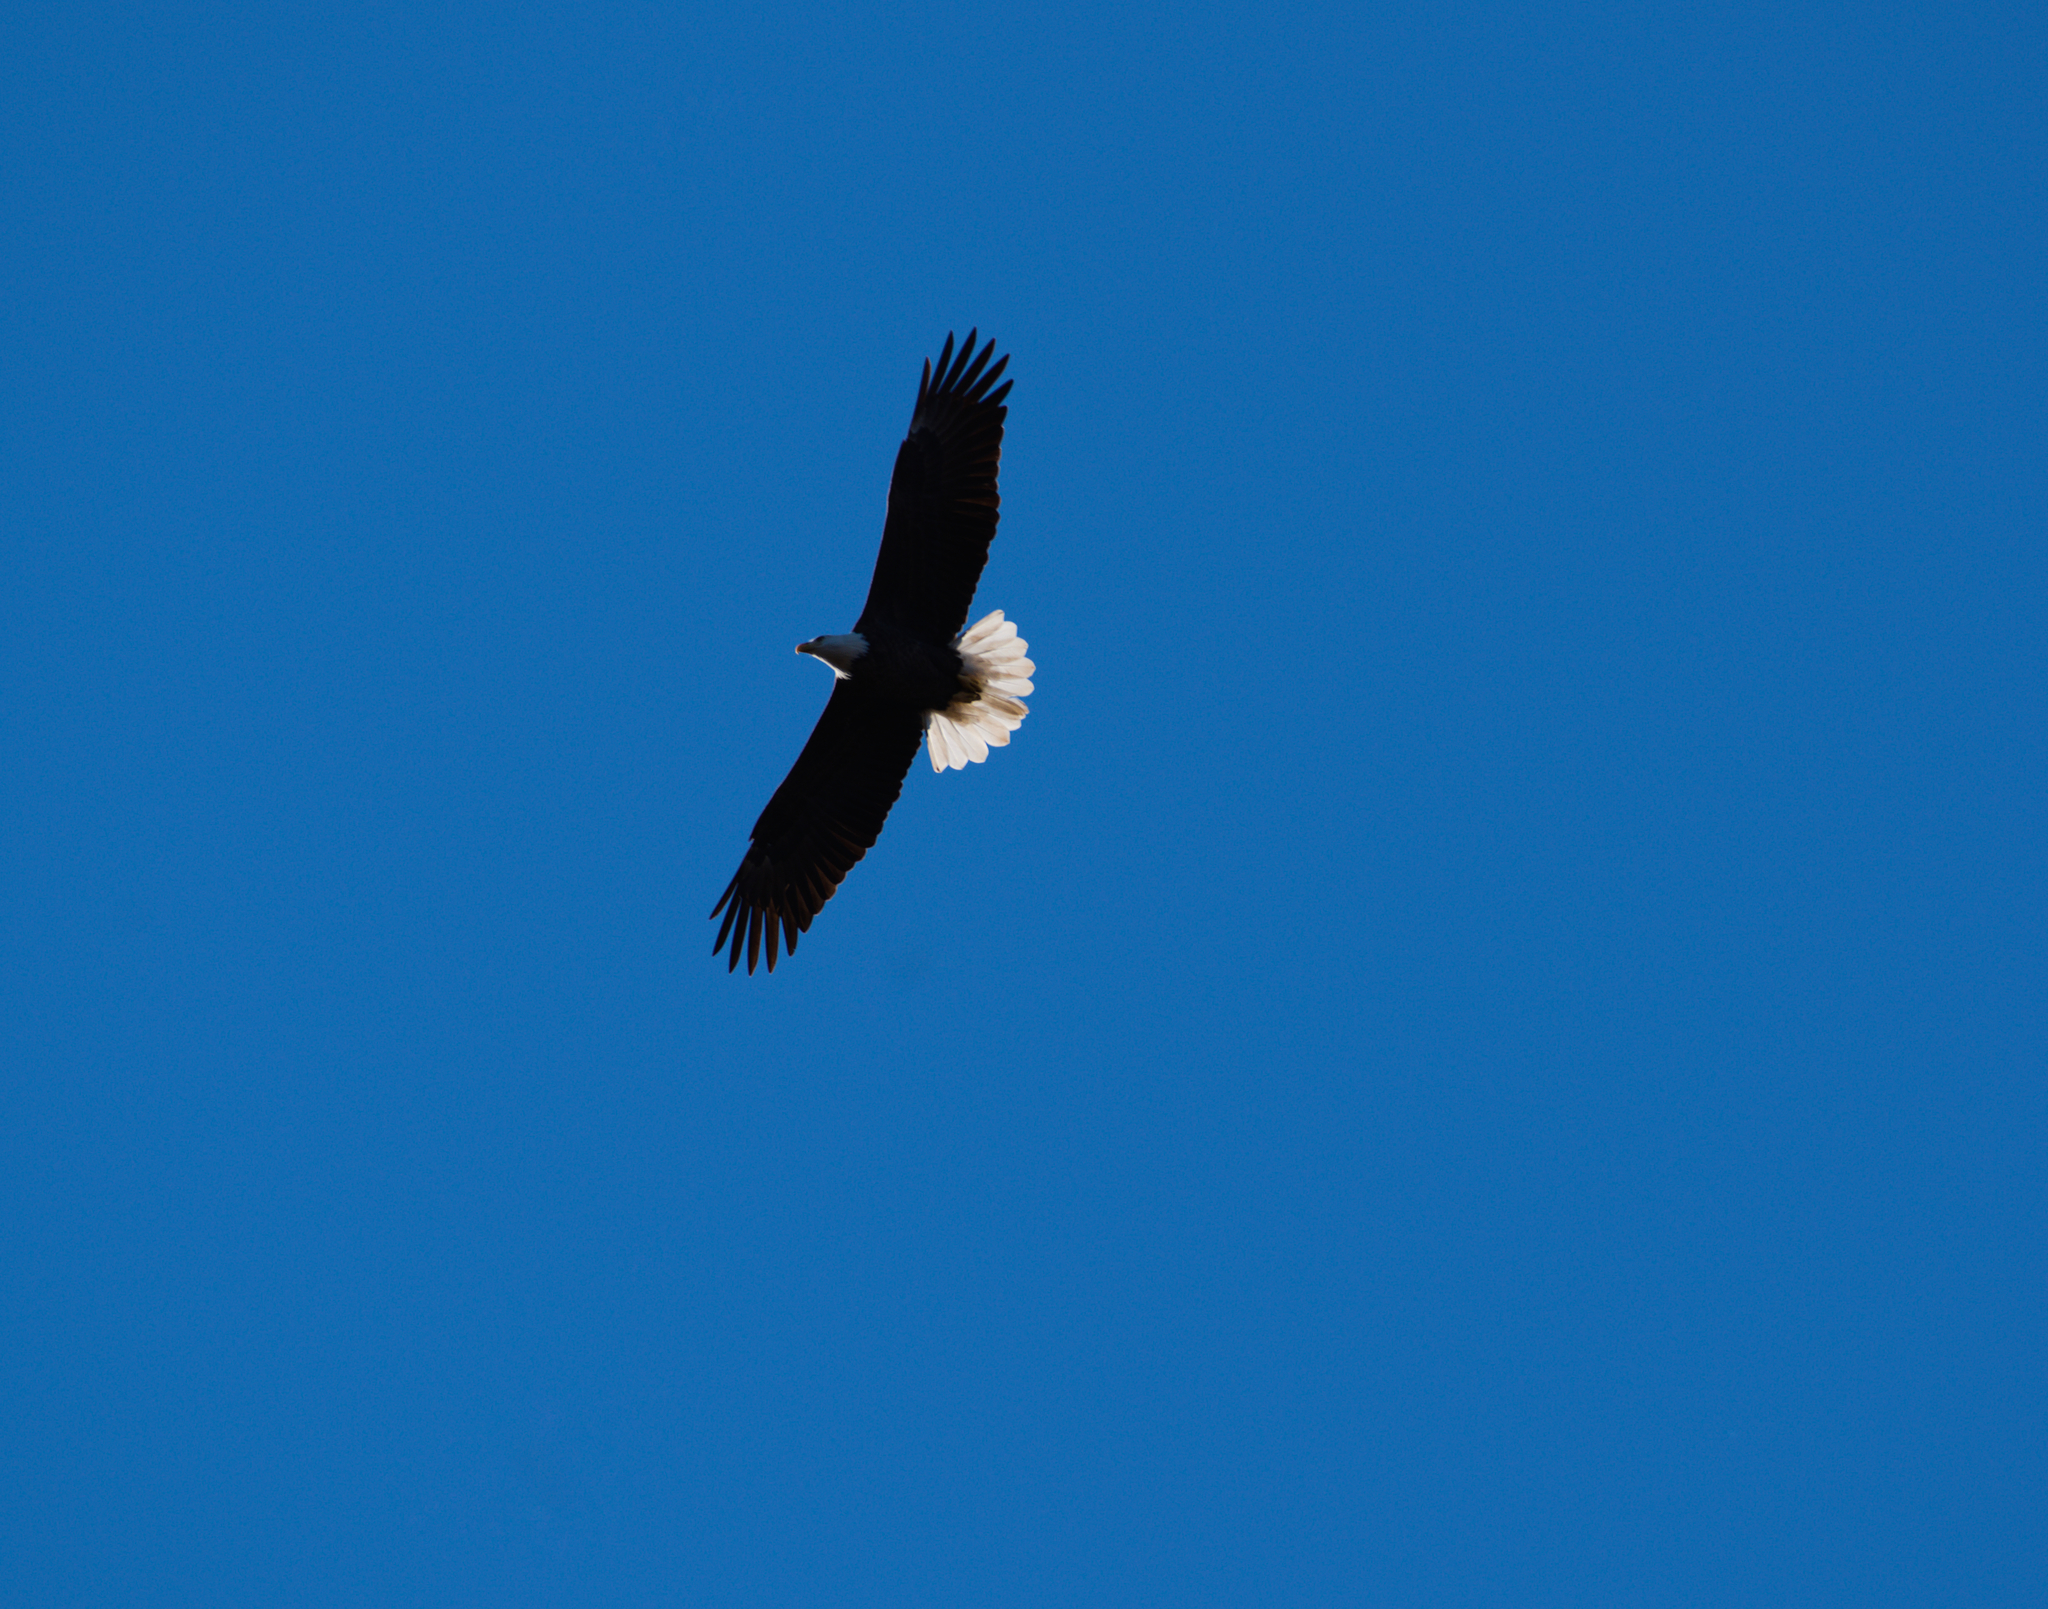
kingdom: Animalia
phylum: Chordata
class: Aves
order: Accipitriformes
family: Accipitridae
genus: Haliaeetus
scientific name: Haliaeetus leucocephalus
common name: Bald eagle
